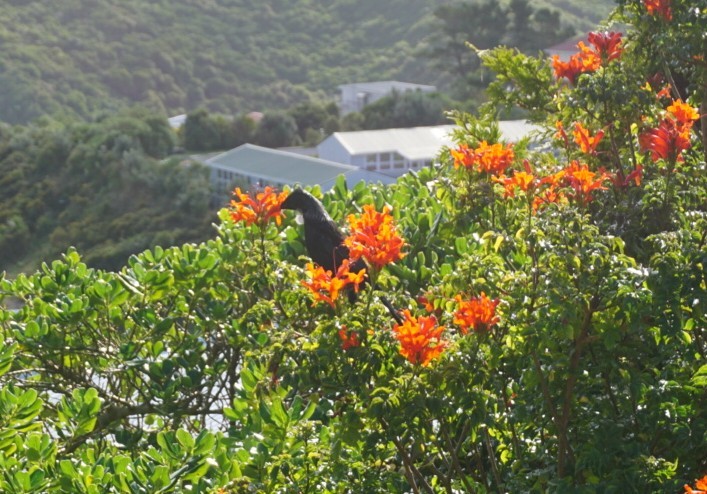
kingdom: Animalia
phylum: Chordata
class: Aves
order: Passeriformes
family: Meliphagidae
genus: Prosthemadera
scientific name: Prosthemadera novaeseelandiae
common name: Tui
